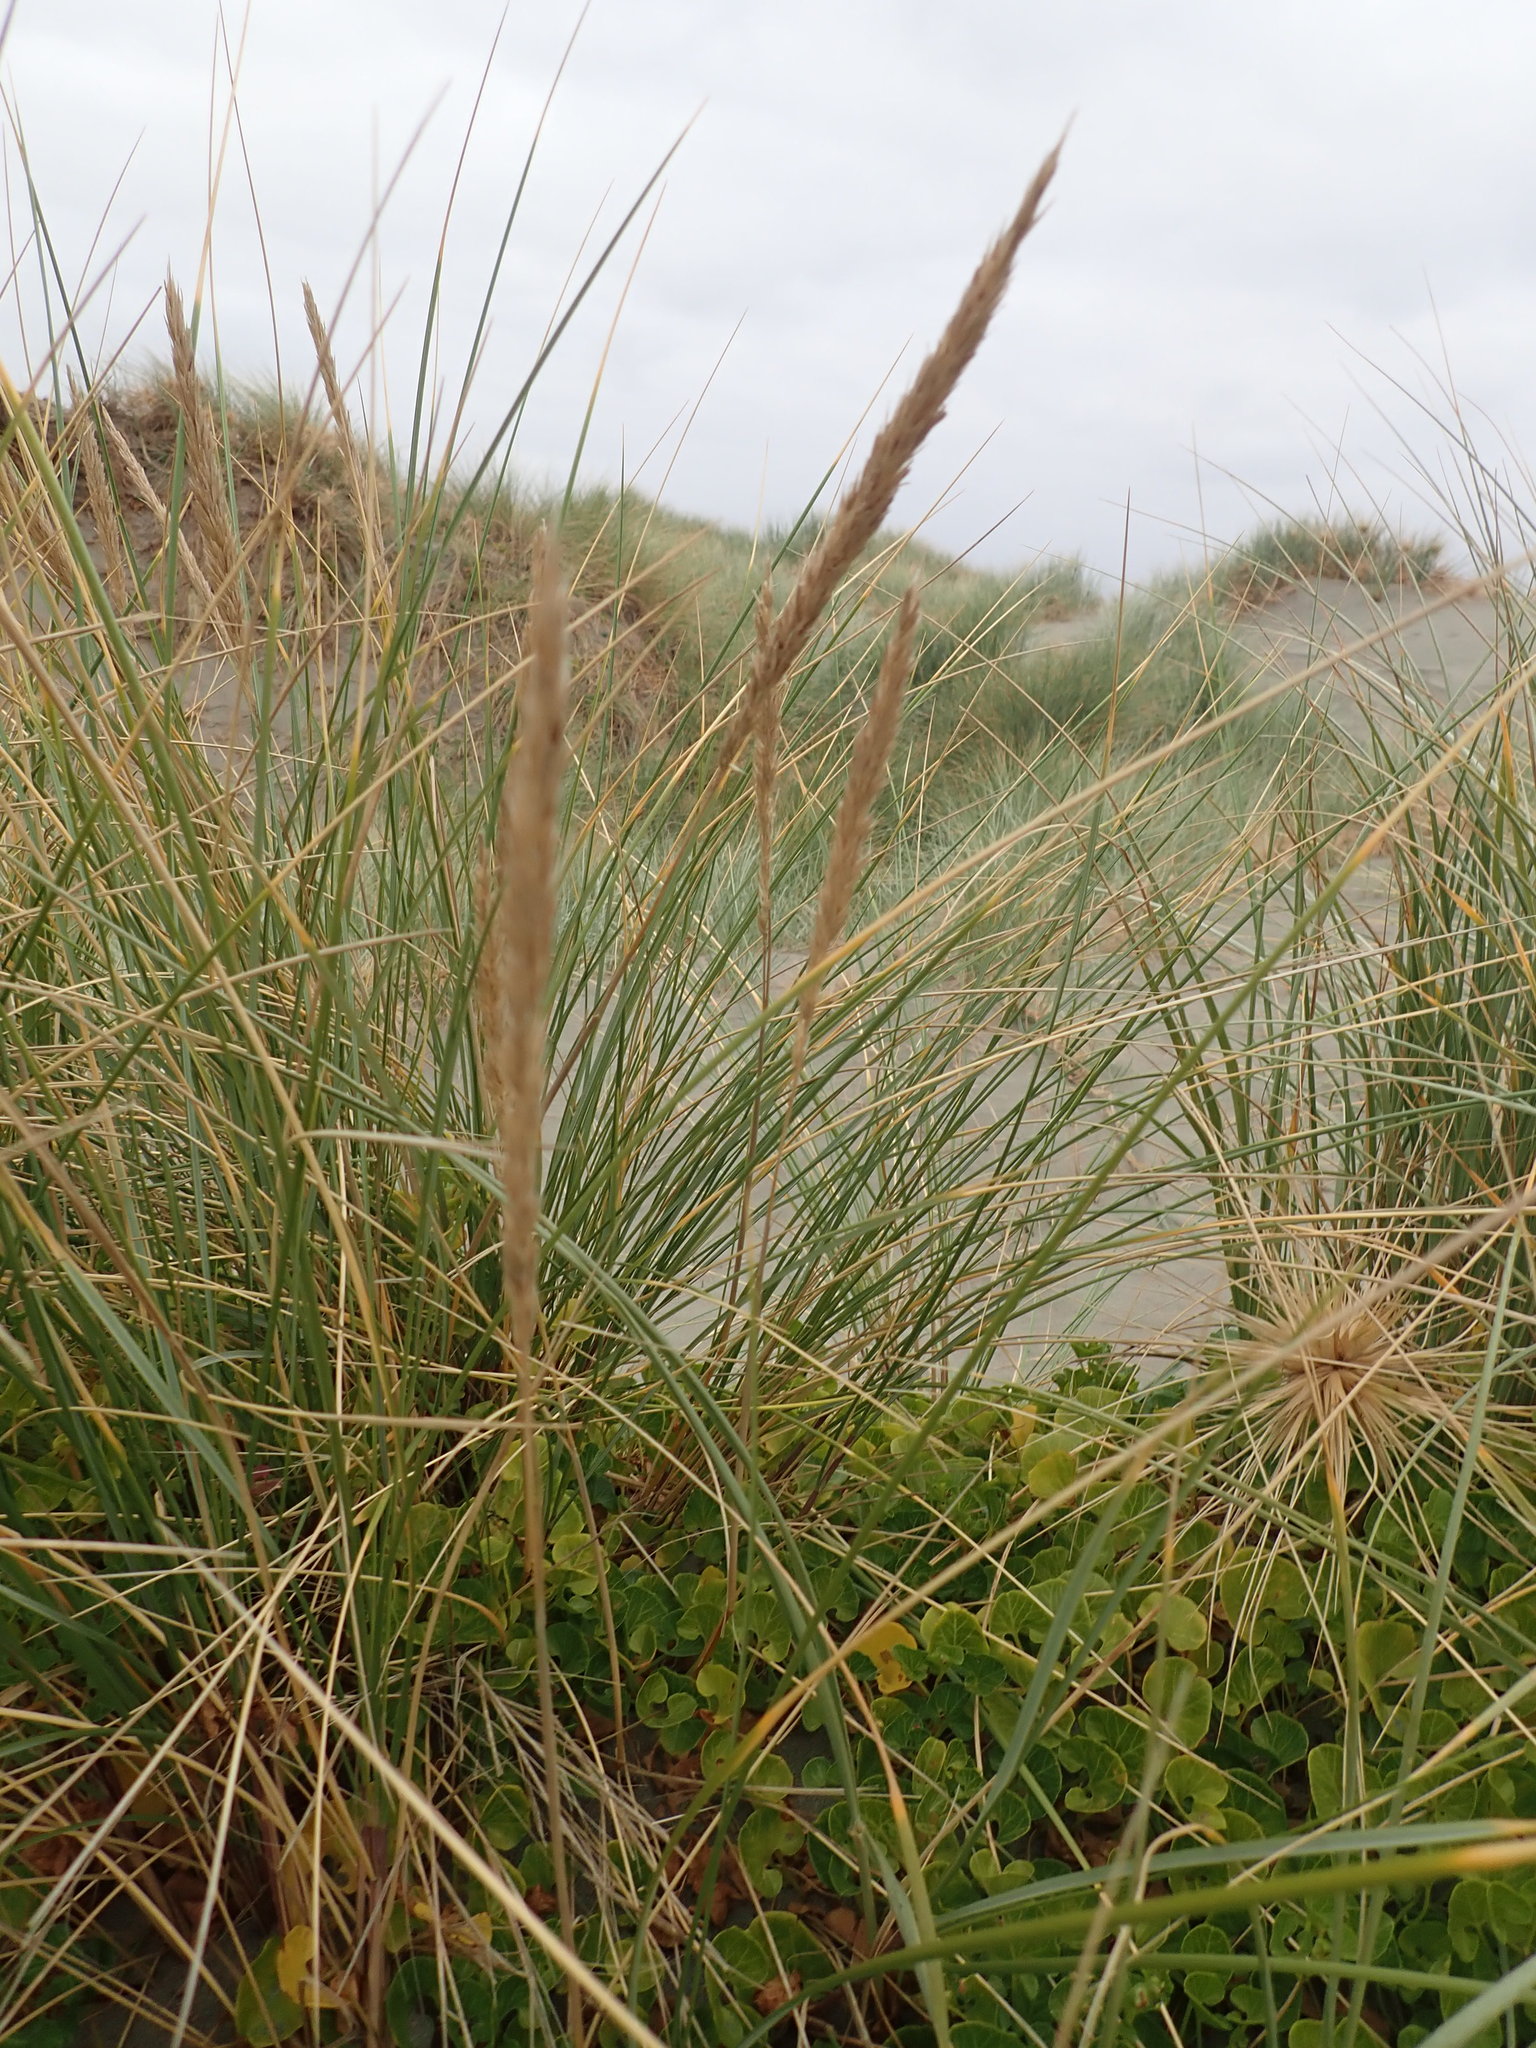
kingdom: Plantae
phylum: Tracheophyta
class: Liliopsida
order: Poales
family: Poaceae
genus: Calamagrostis
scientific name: Calamagrostis arenaria
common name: European beachgrass
